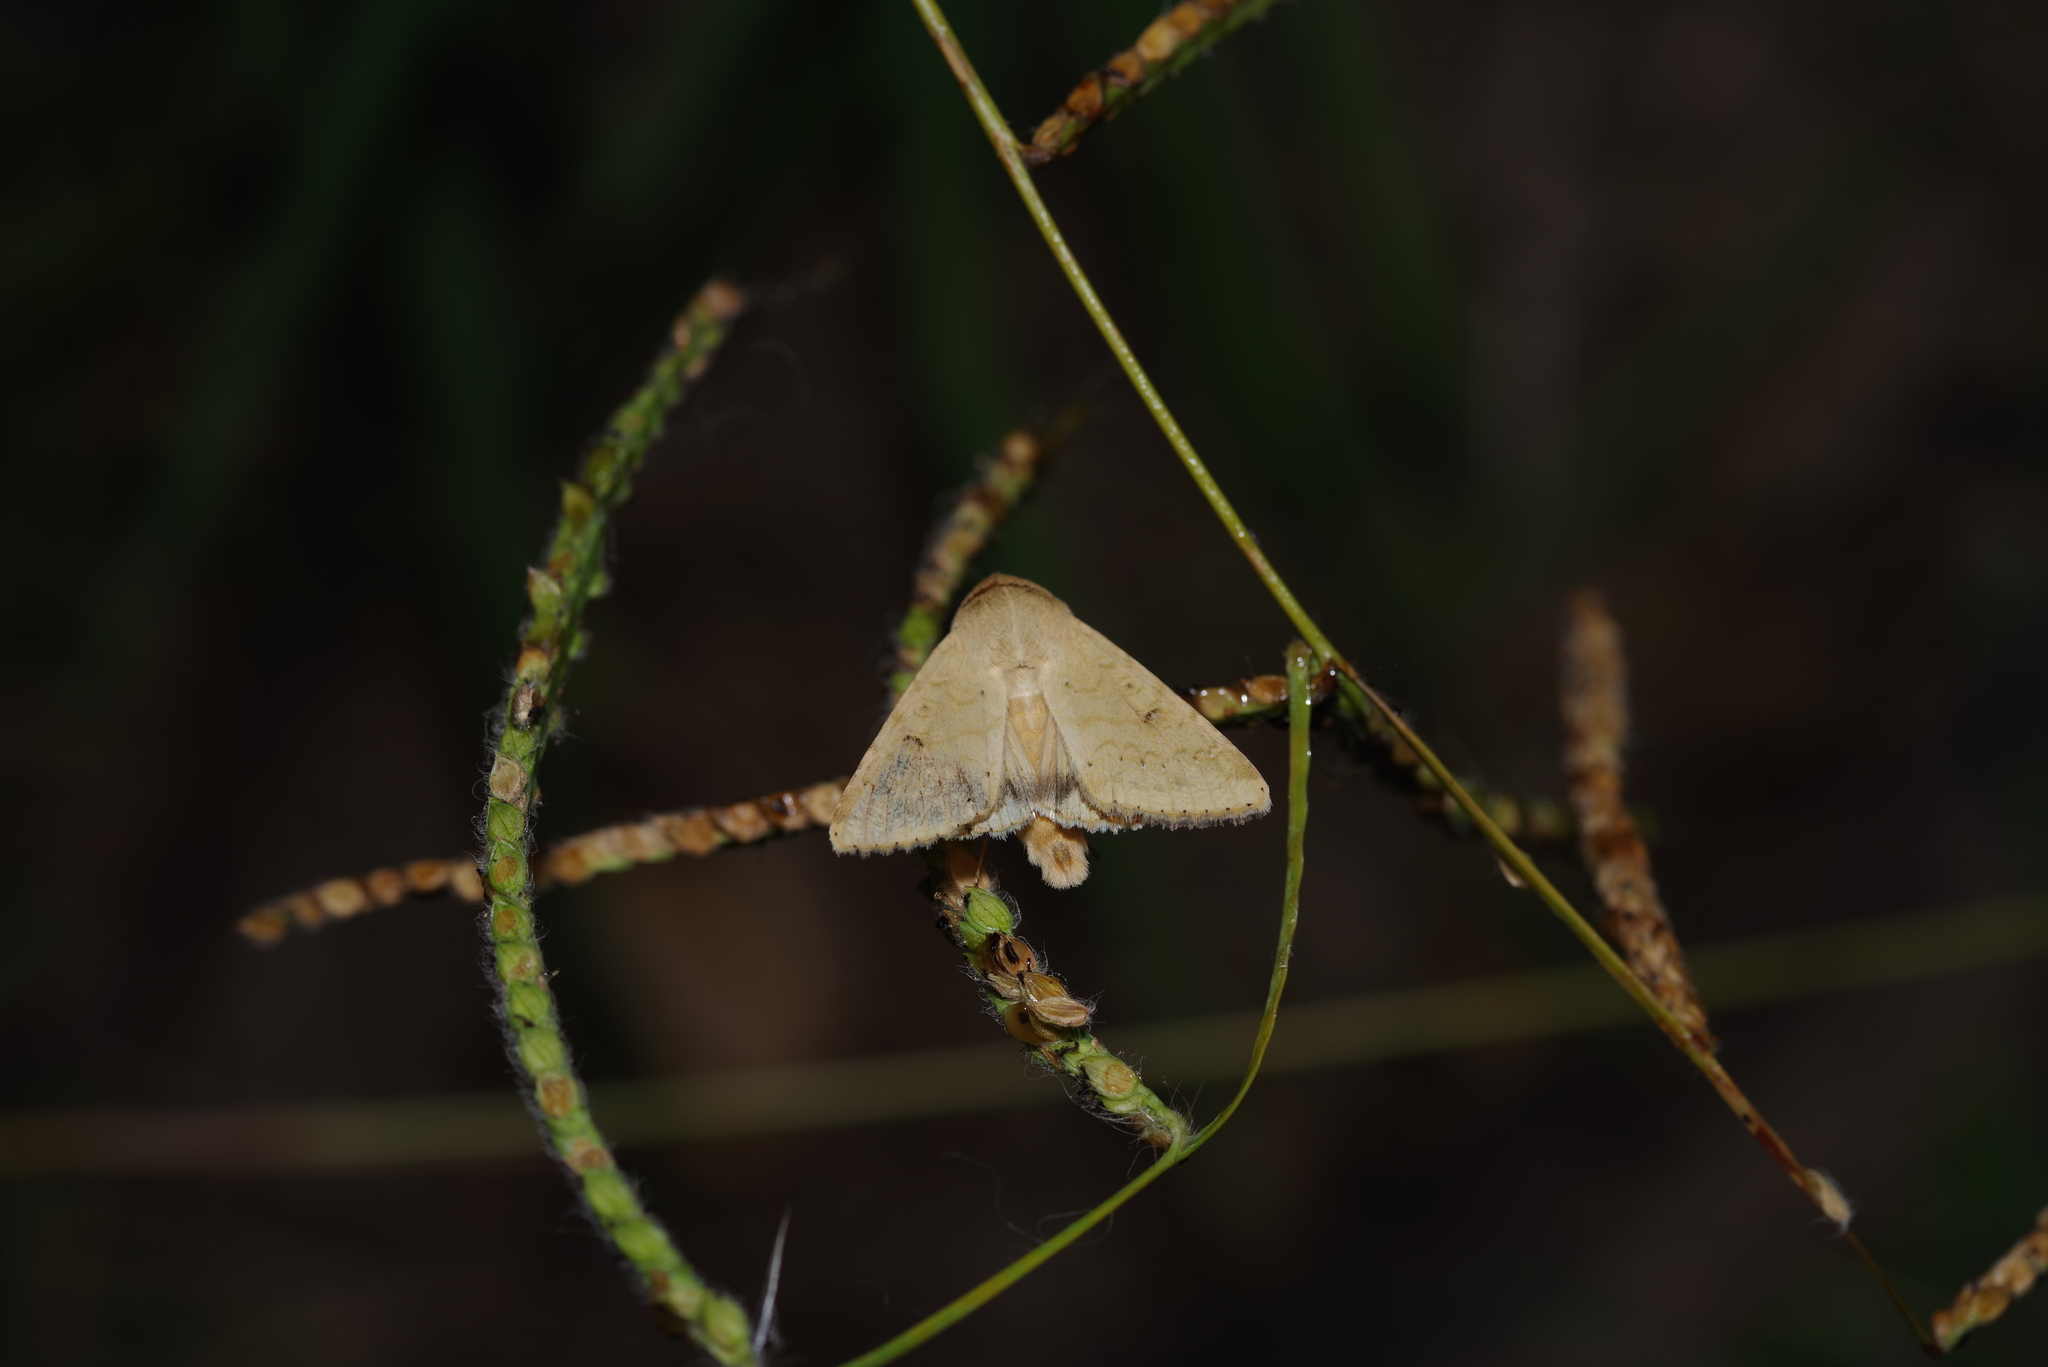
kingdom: Animalia
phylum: Arthropoda
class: Insecta
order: Lepidoptera
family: Noctuidae
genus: Helicoverpa
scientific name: Helicoverpa zea
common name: Bollworm
